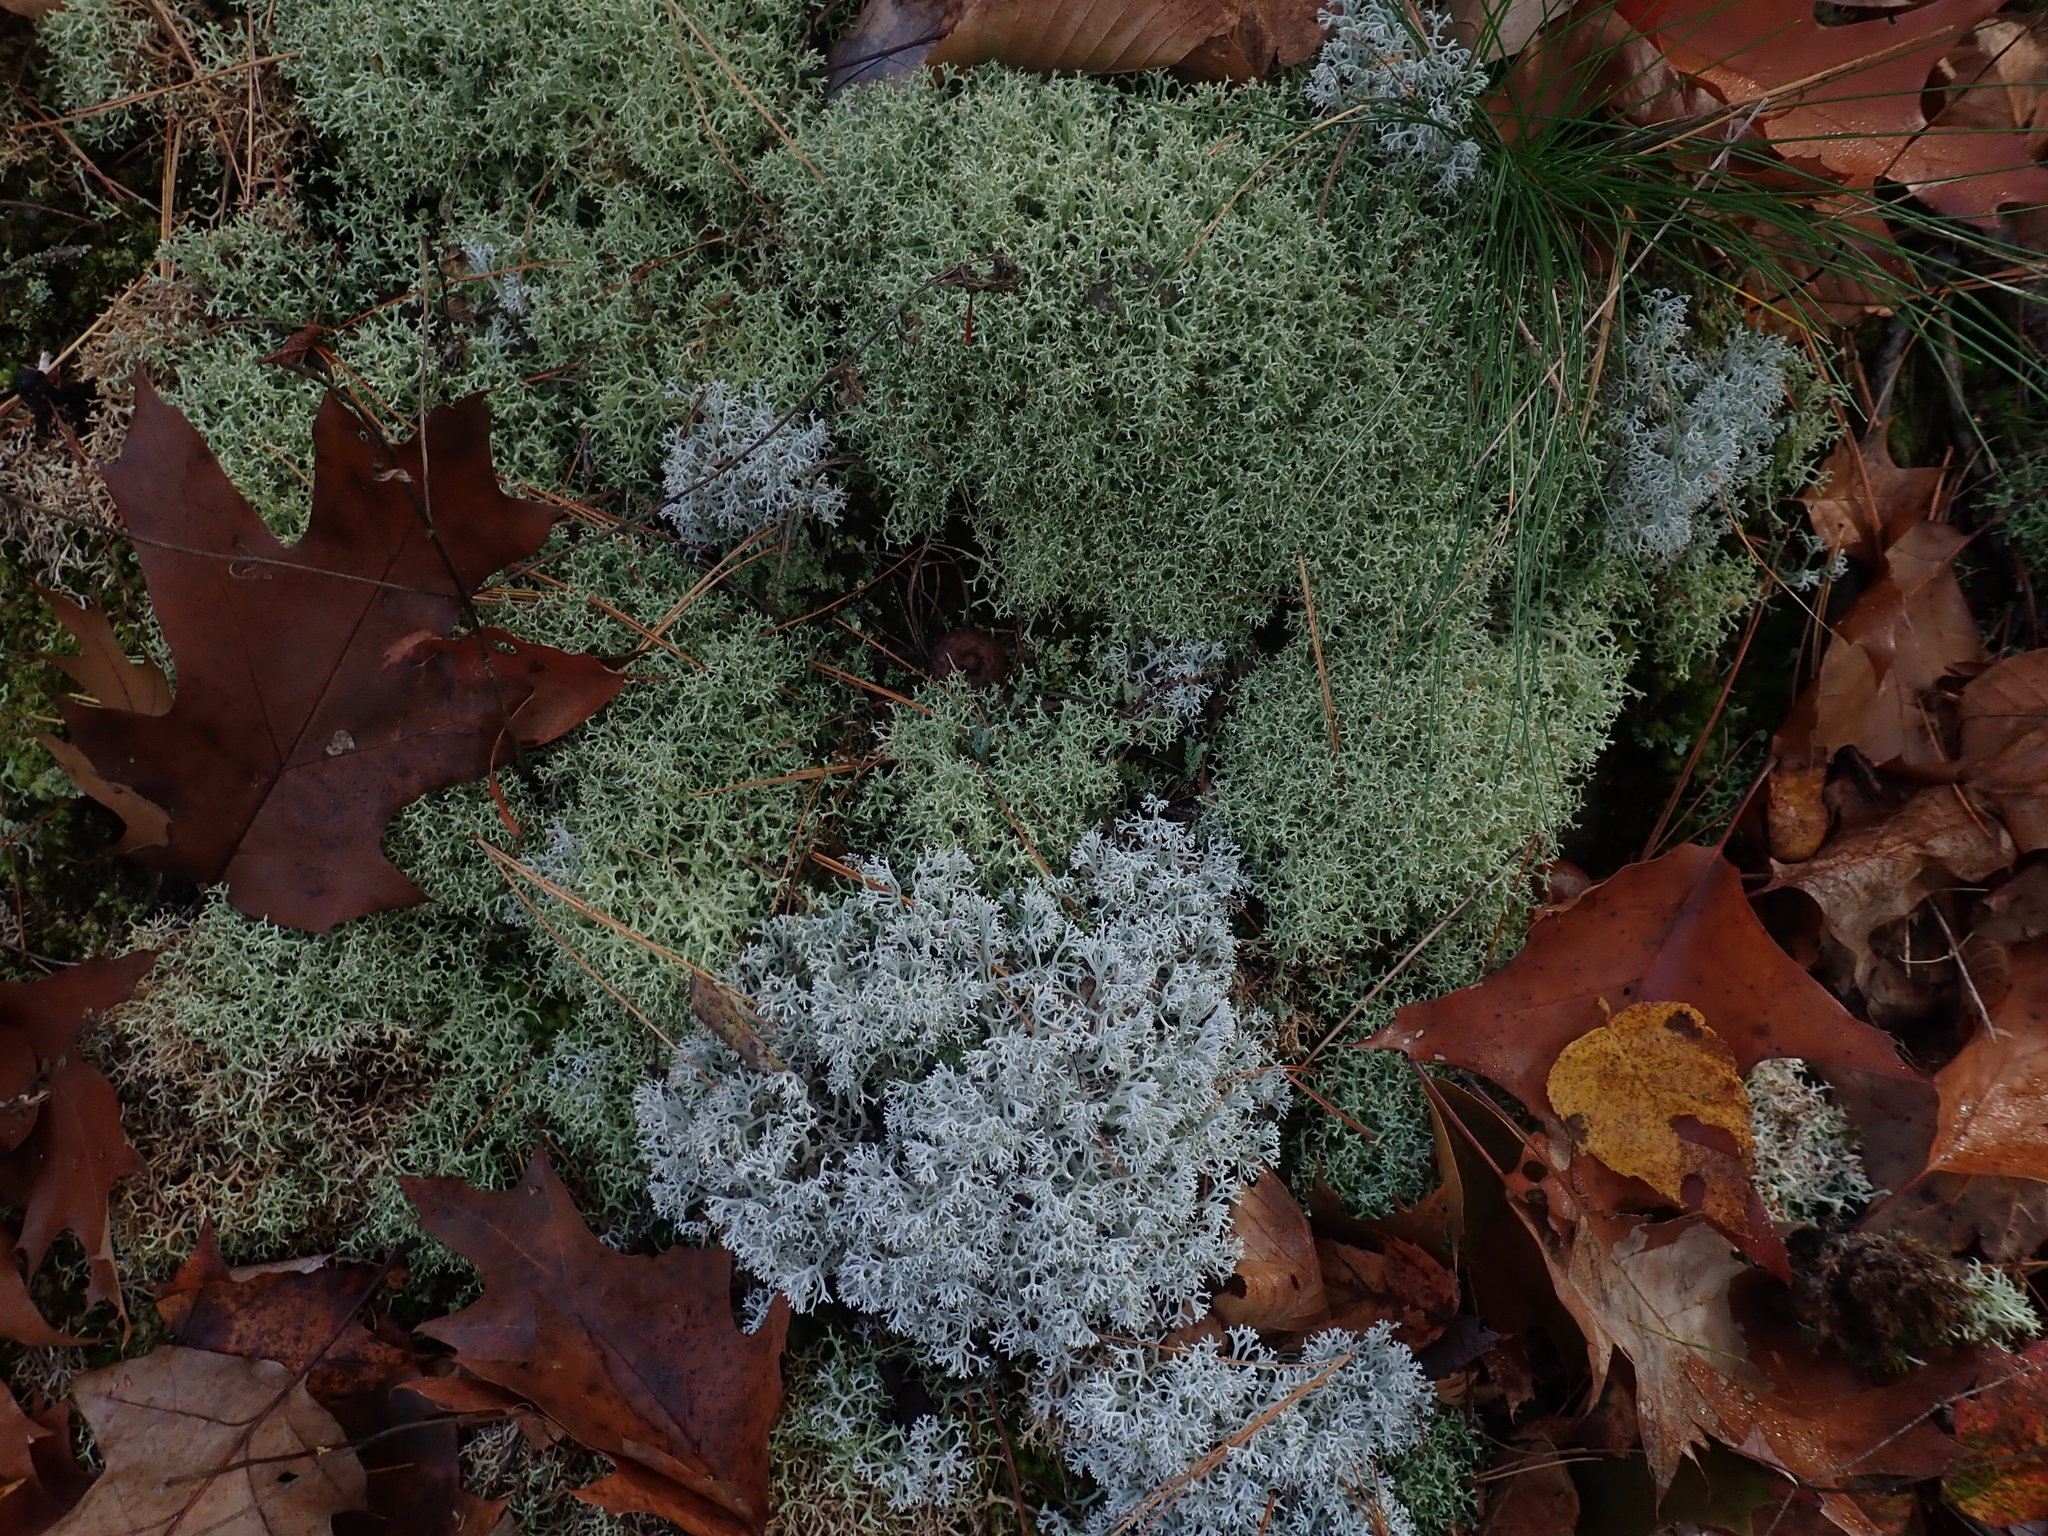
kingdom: Fungi
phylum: Ascomycota
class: Lecanoromycetes
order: Lecanorales
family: Cladoniaceae
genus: Cladonia
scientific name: Cladonia
